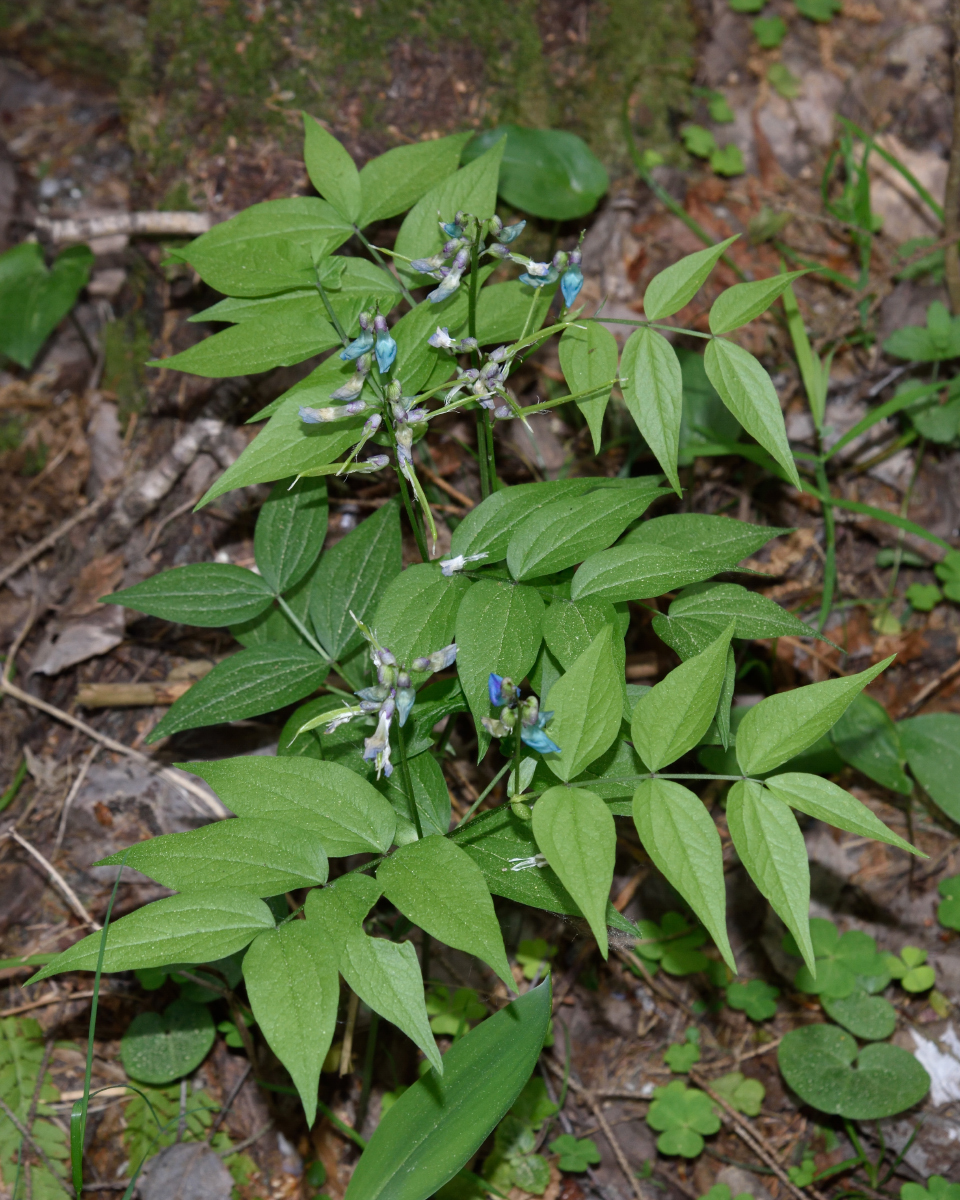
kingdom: Plantae
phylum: Tracheophyta
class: Magnoliopsida
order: Fabales
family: Fabaceae
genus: Lathyrus
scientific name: Lathyrus vernus
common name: Spring pea
